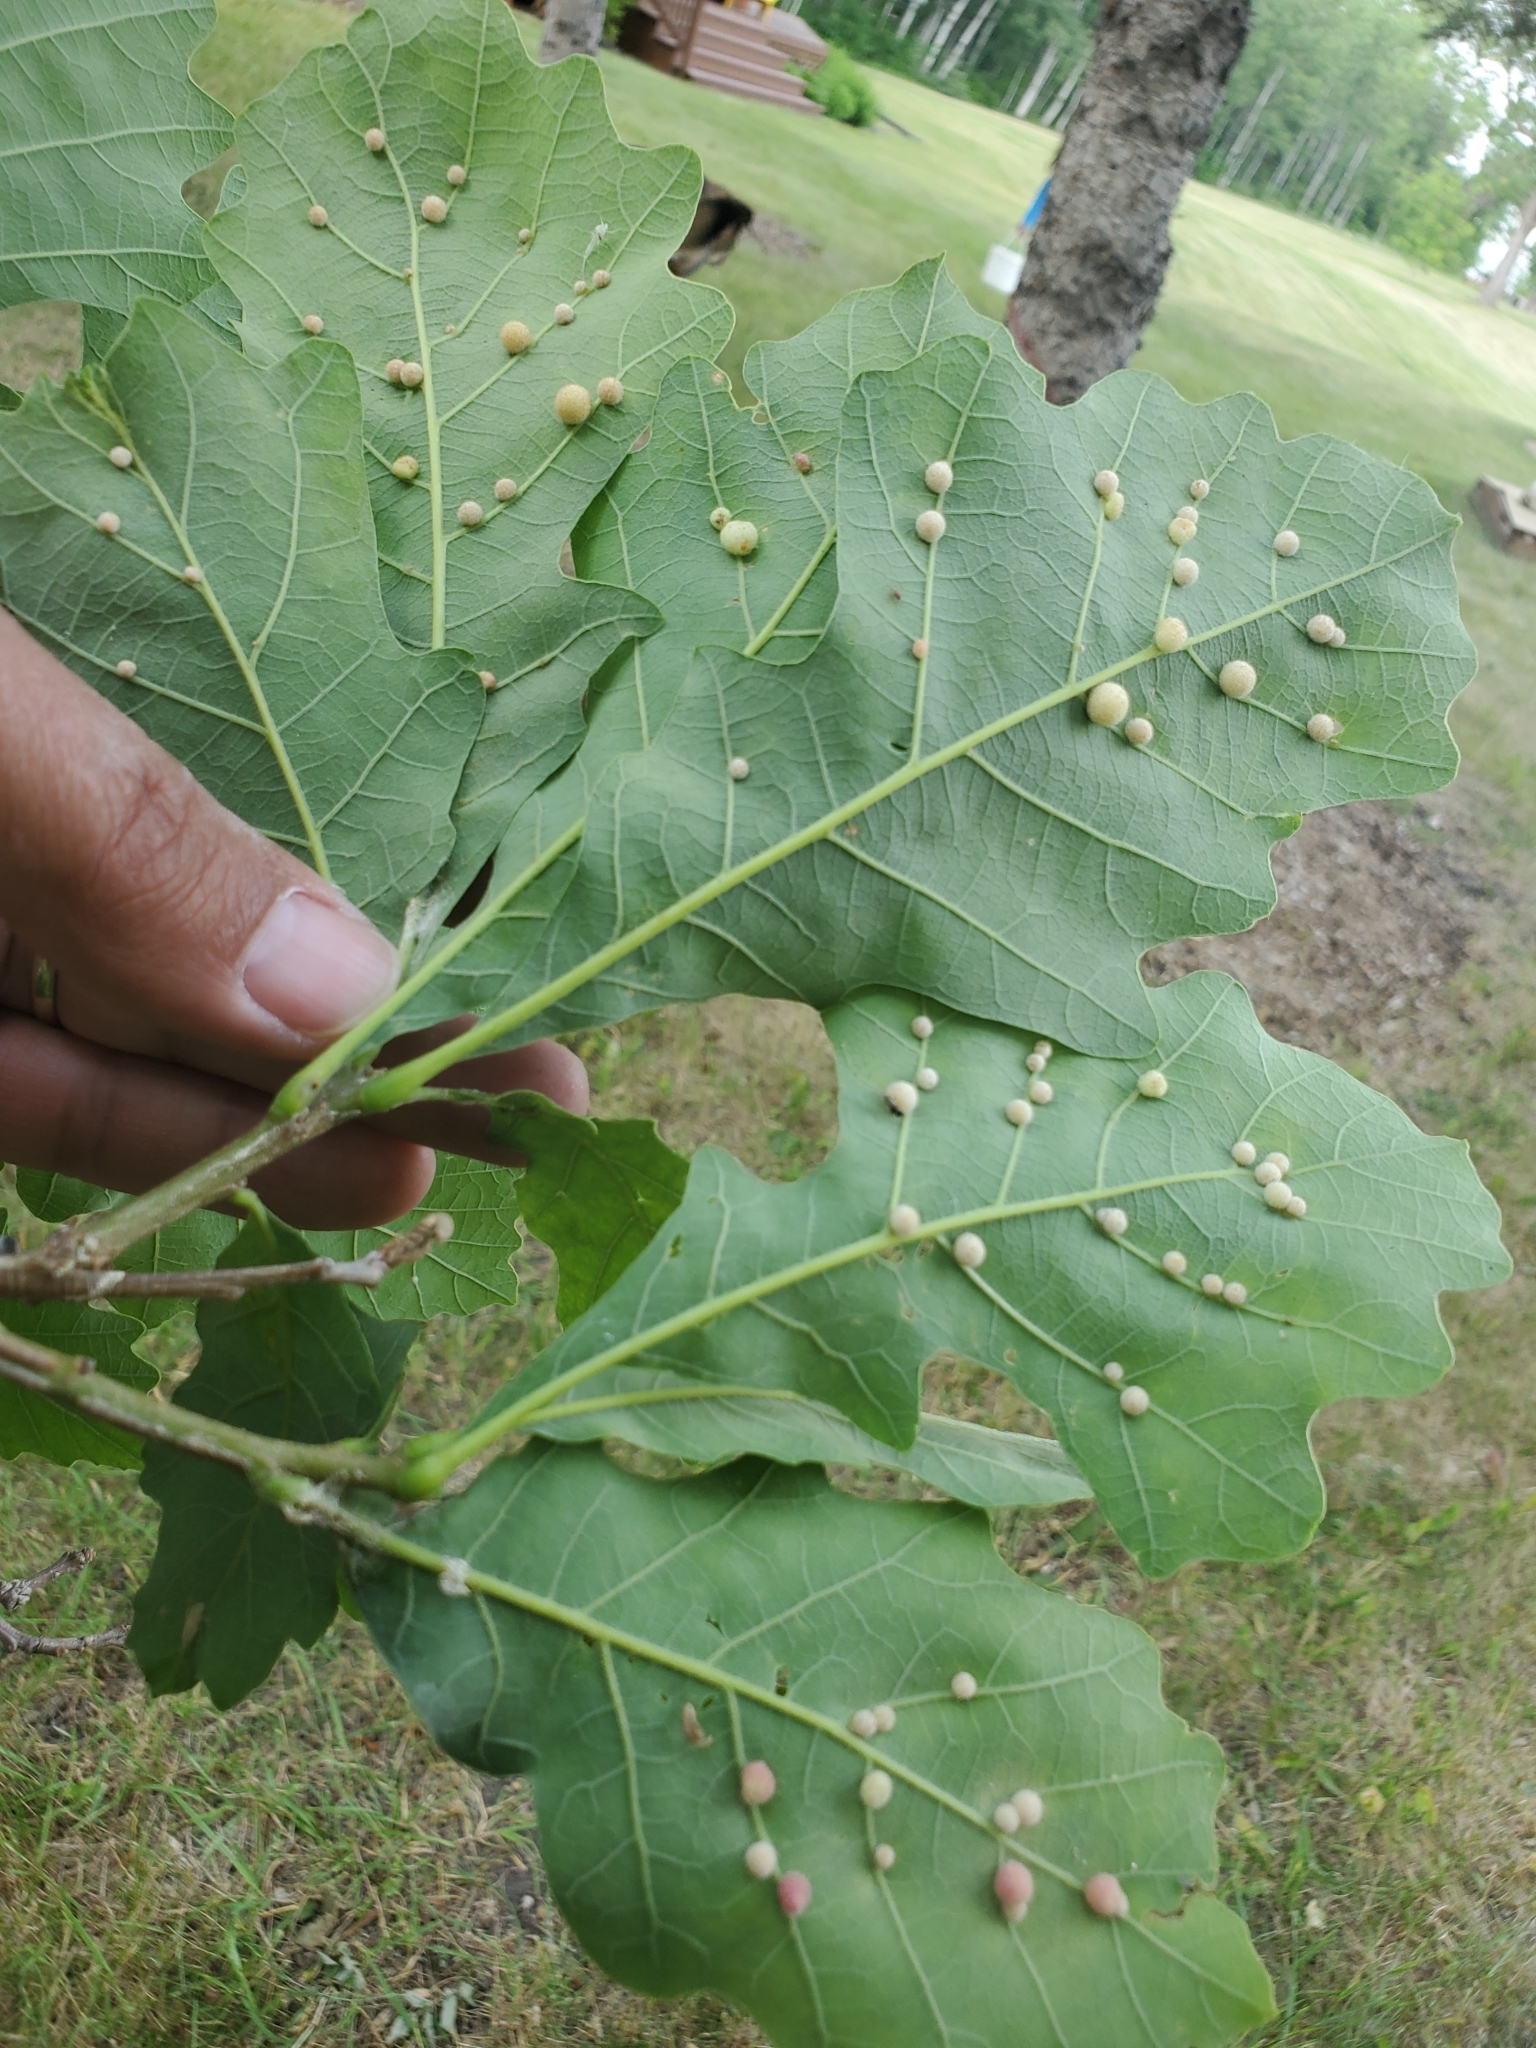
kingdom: Animalia
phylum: Arthropoda
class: Insecta
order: Hymenoptera
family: Cynipidae
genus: Philonix
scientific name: Philonix fulvicollis
